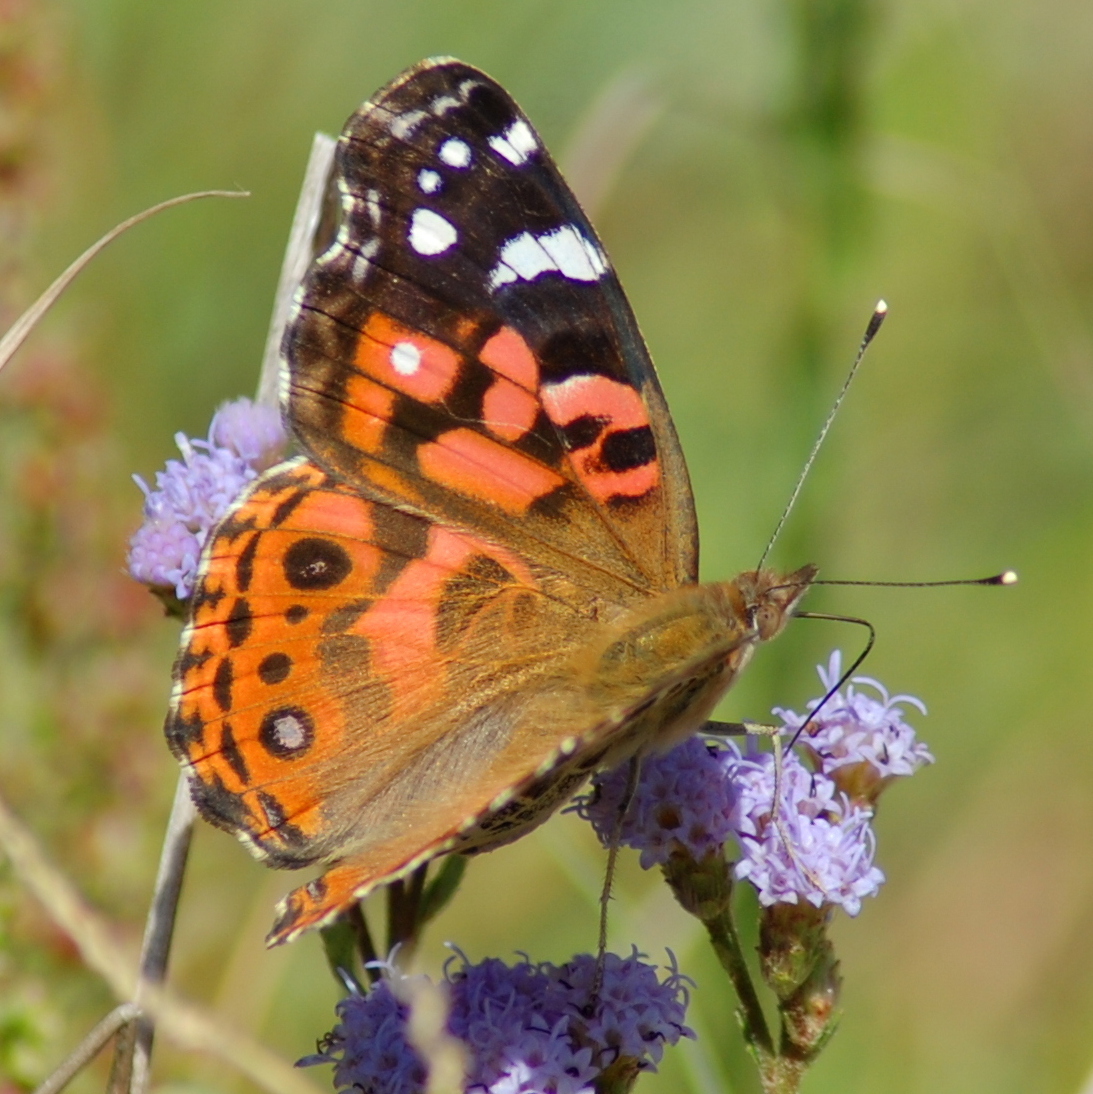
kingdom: Animalia
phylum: Arthropoda
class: Insecta
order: Lepidoptera
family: Nymphalidae
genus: Vanessa
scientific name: Vanessa braziliensis
